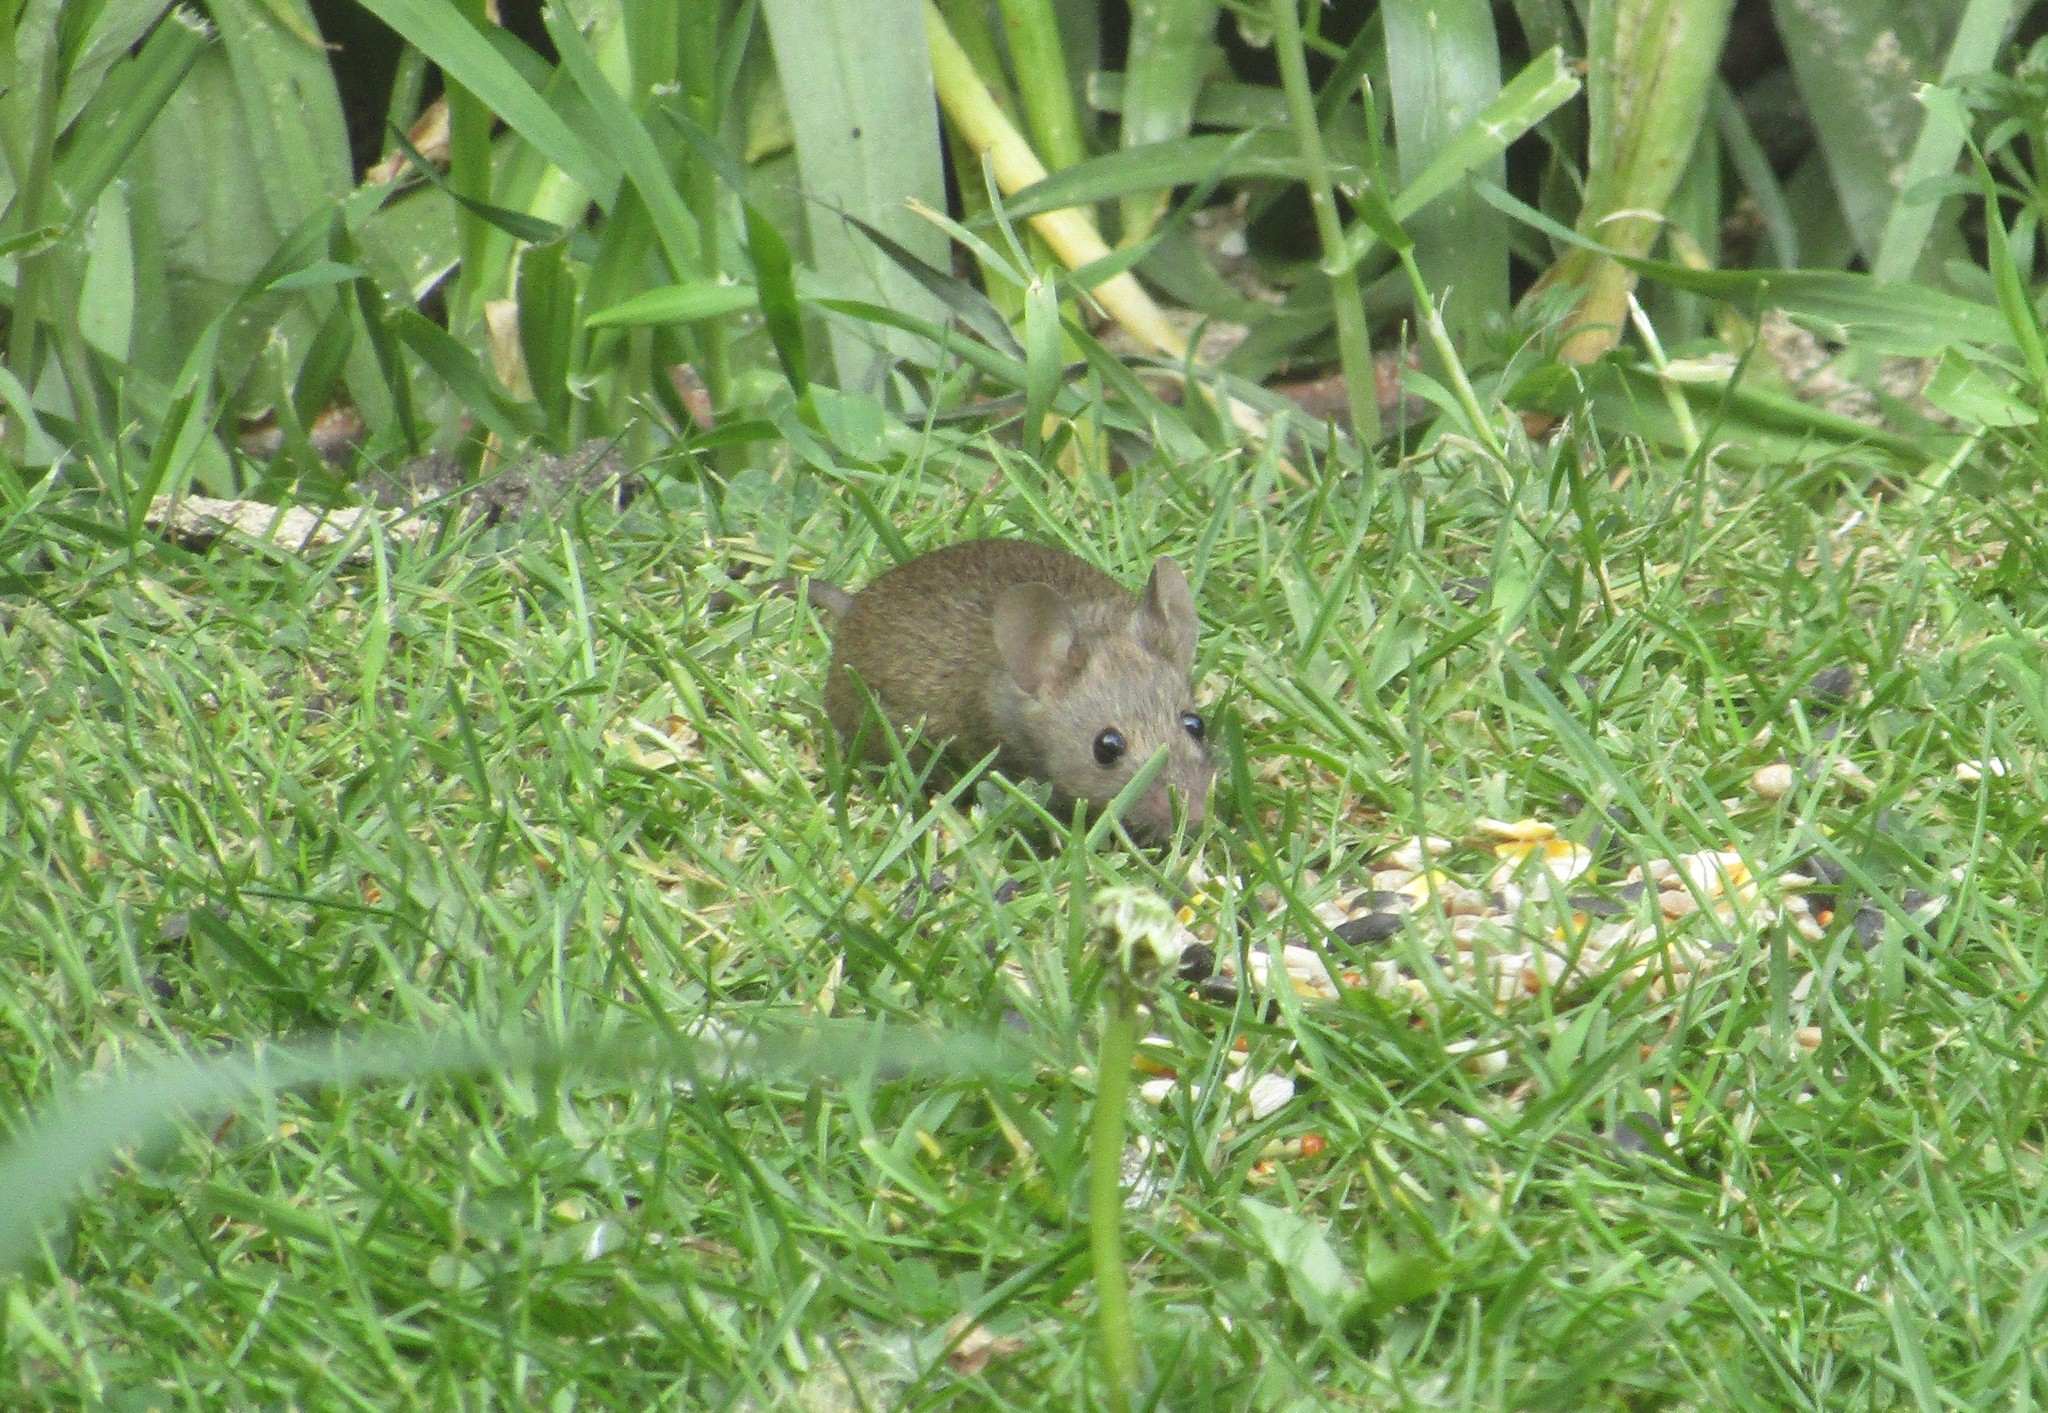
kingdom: Animalia
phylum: Chordata
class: Mammalia
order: Rodentia
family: Muridae
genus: Mus
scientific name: Mus musculus
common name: House mouse
